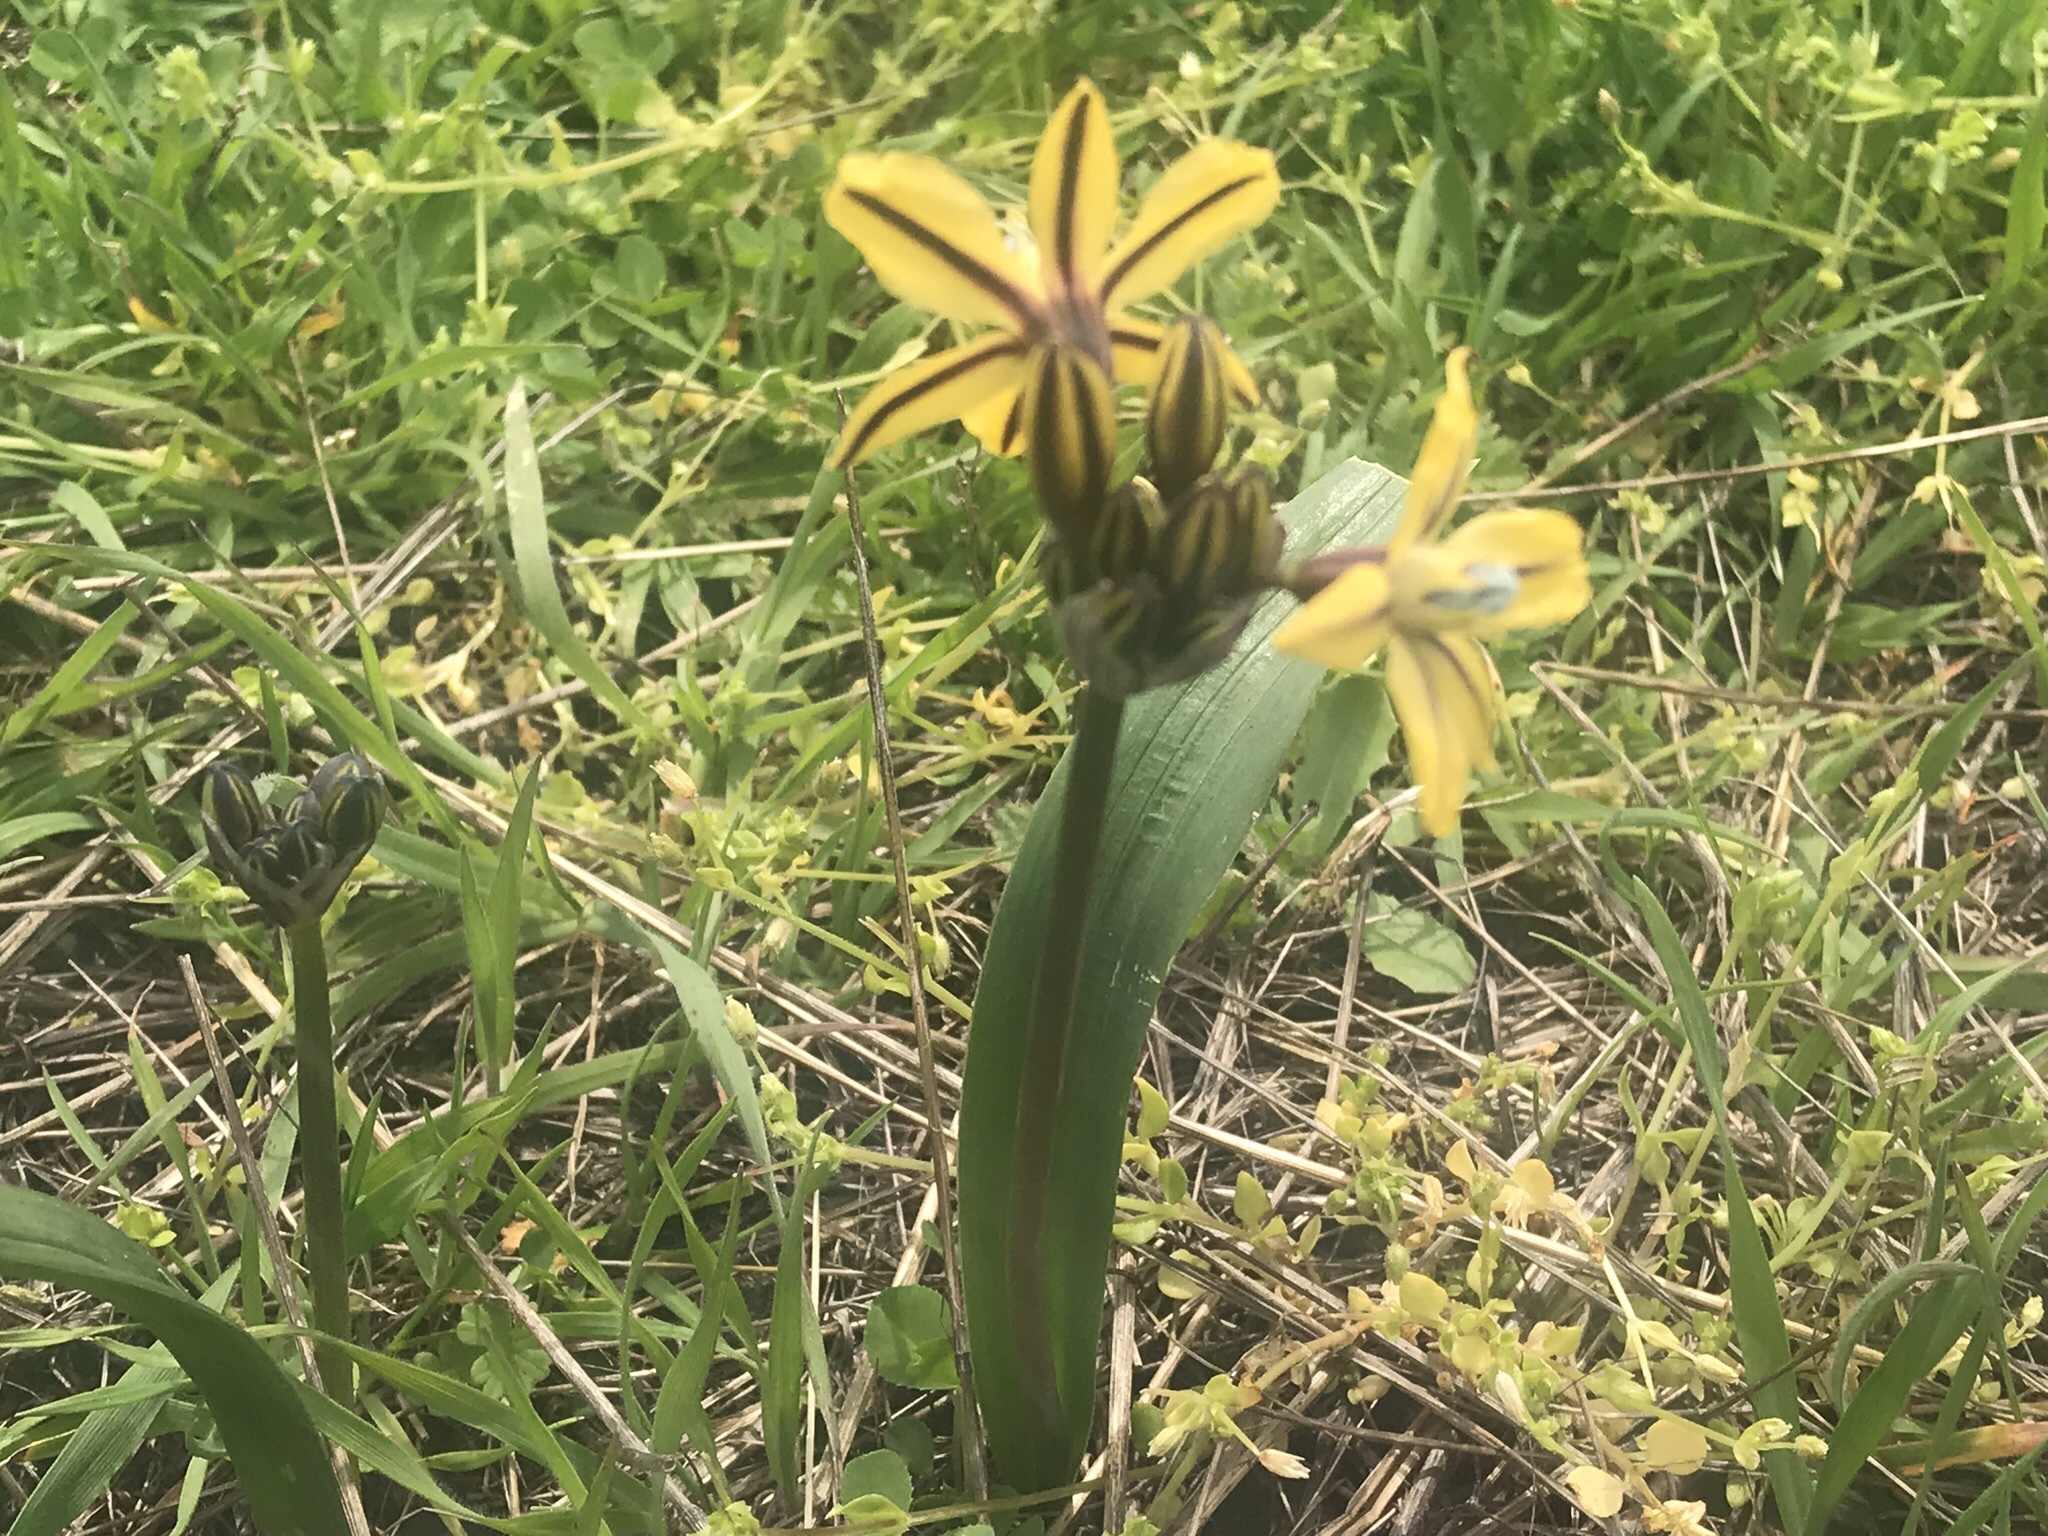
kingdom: Plantae
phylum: Tracheophyta
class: Liliopsida
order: Asparagales
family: Asparagaceae
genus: Triteleia
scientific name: Triteleia ixioides
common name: Yellow-brodiaea
